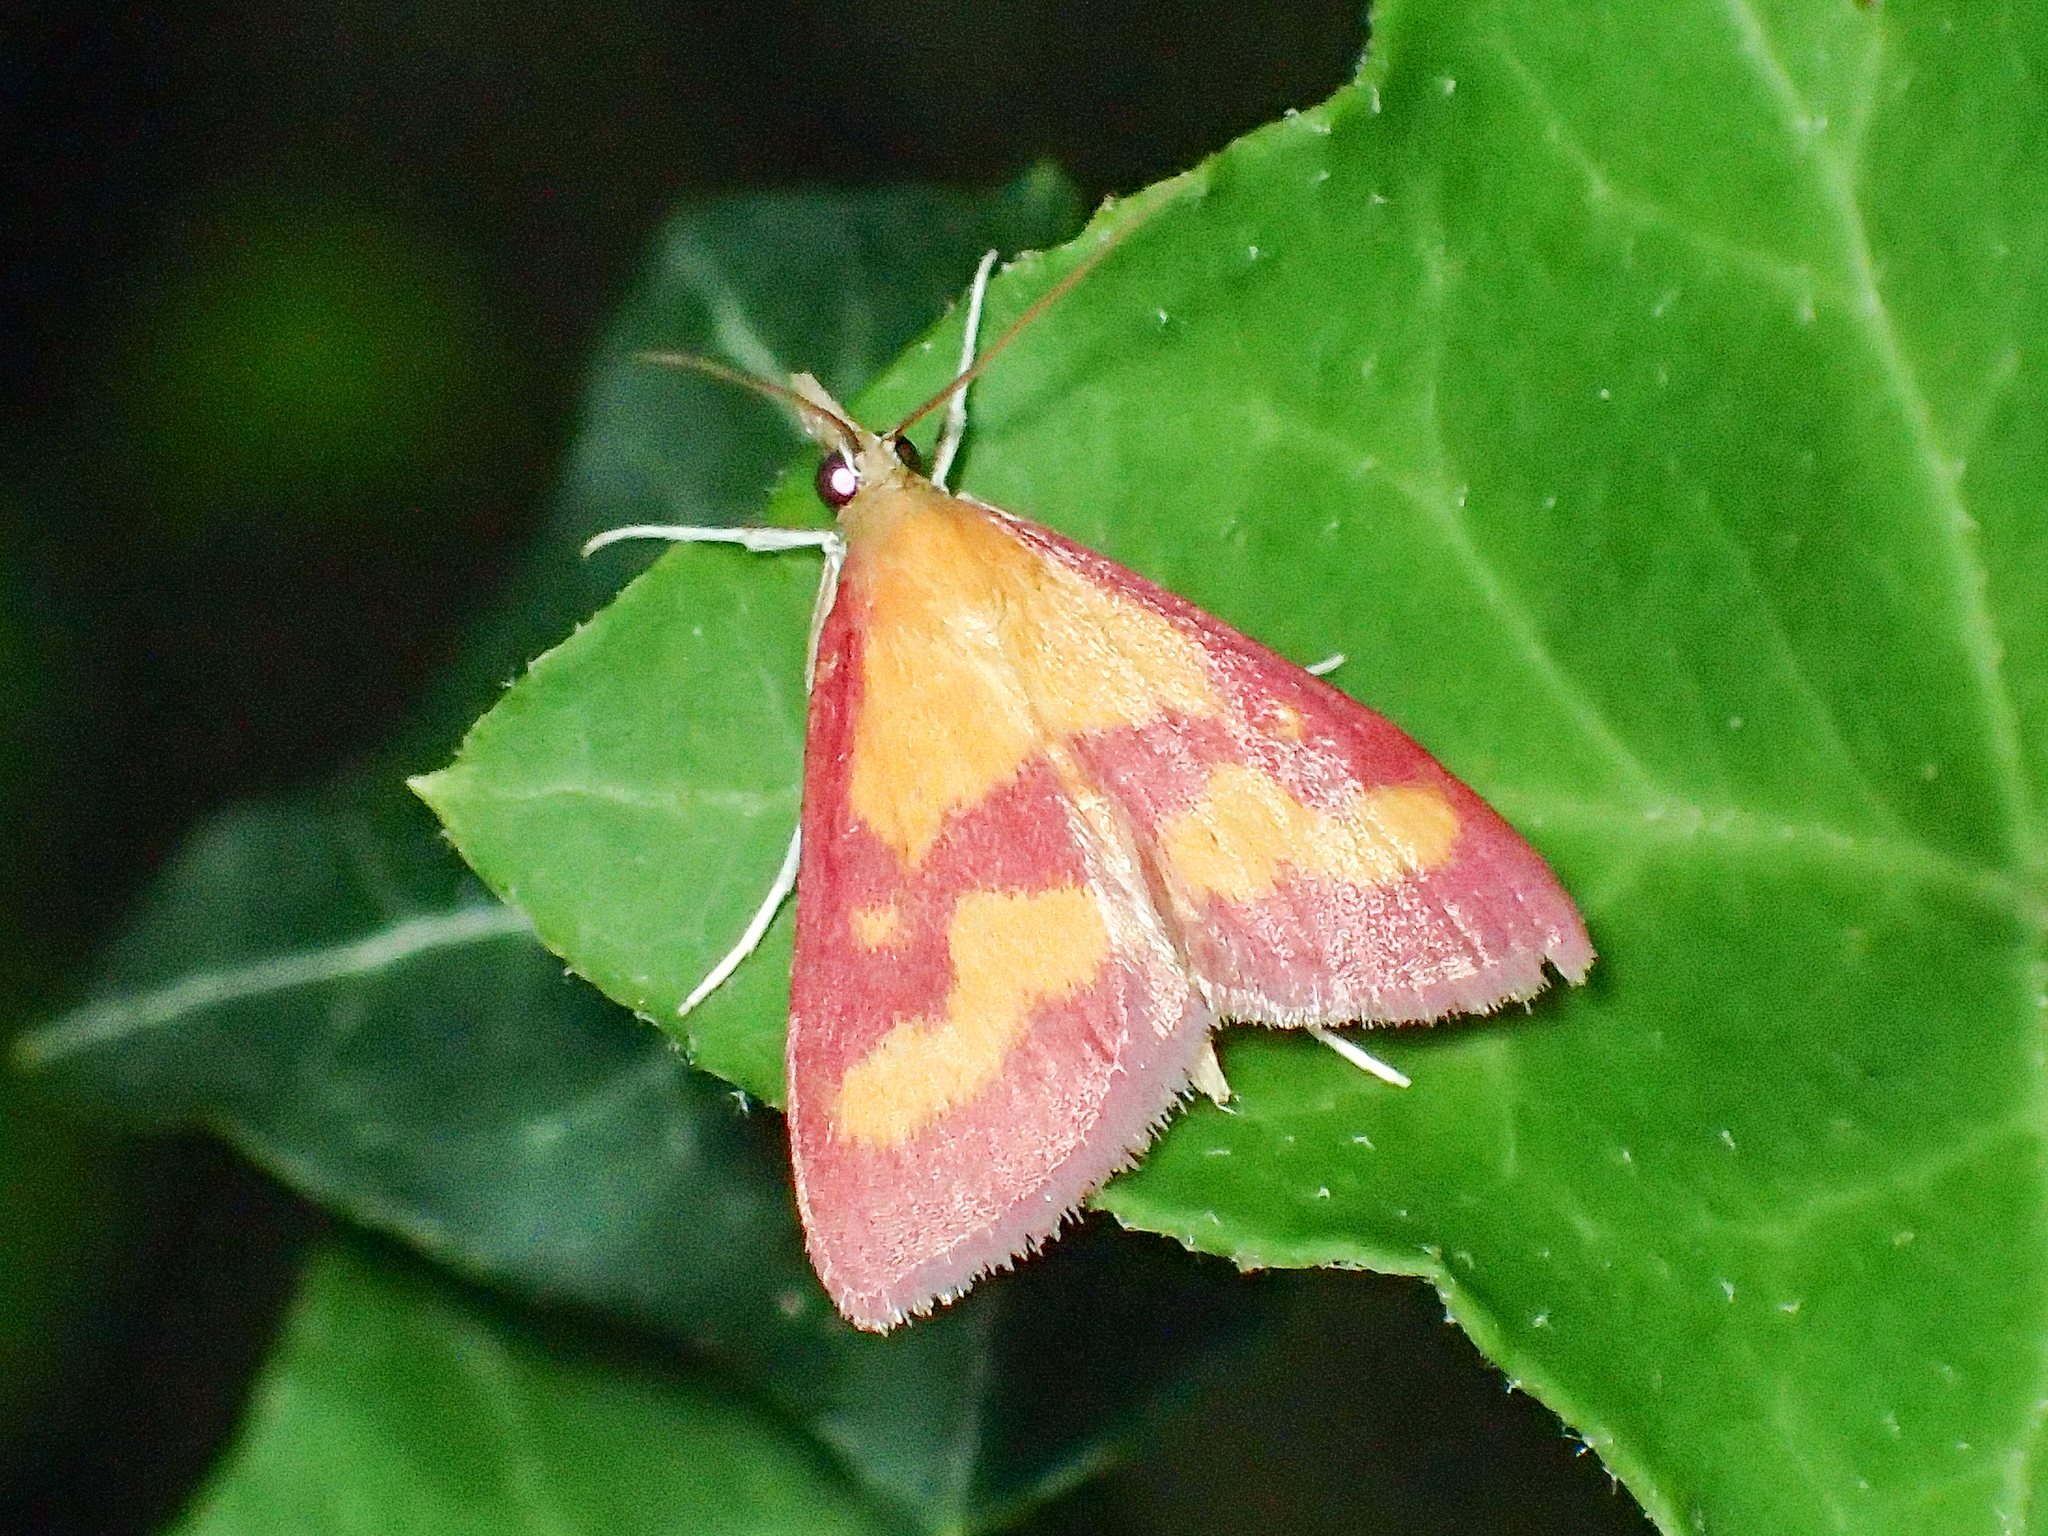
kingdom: Animalia
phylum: Arthropoda
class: Insecta
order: Lepidoptera
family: Crambidae
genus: Pyrausta
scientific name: Pyrausta laticlavia
